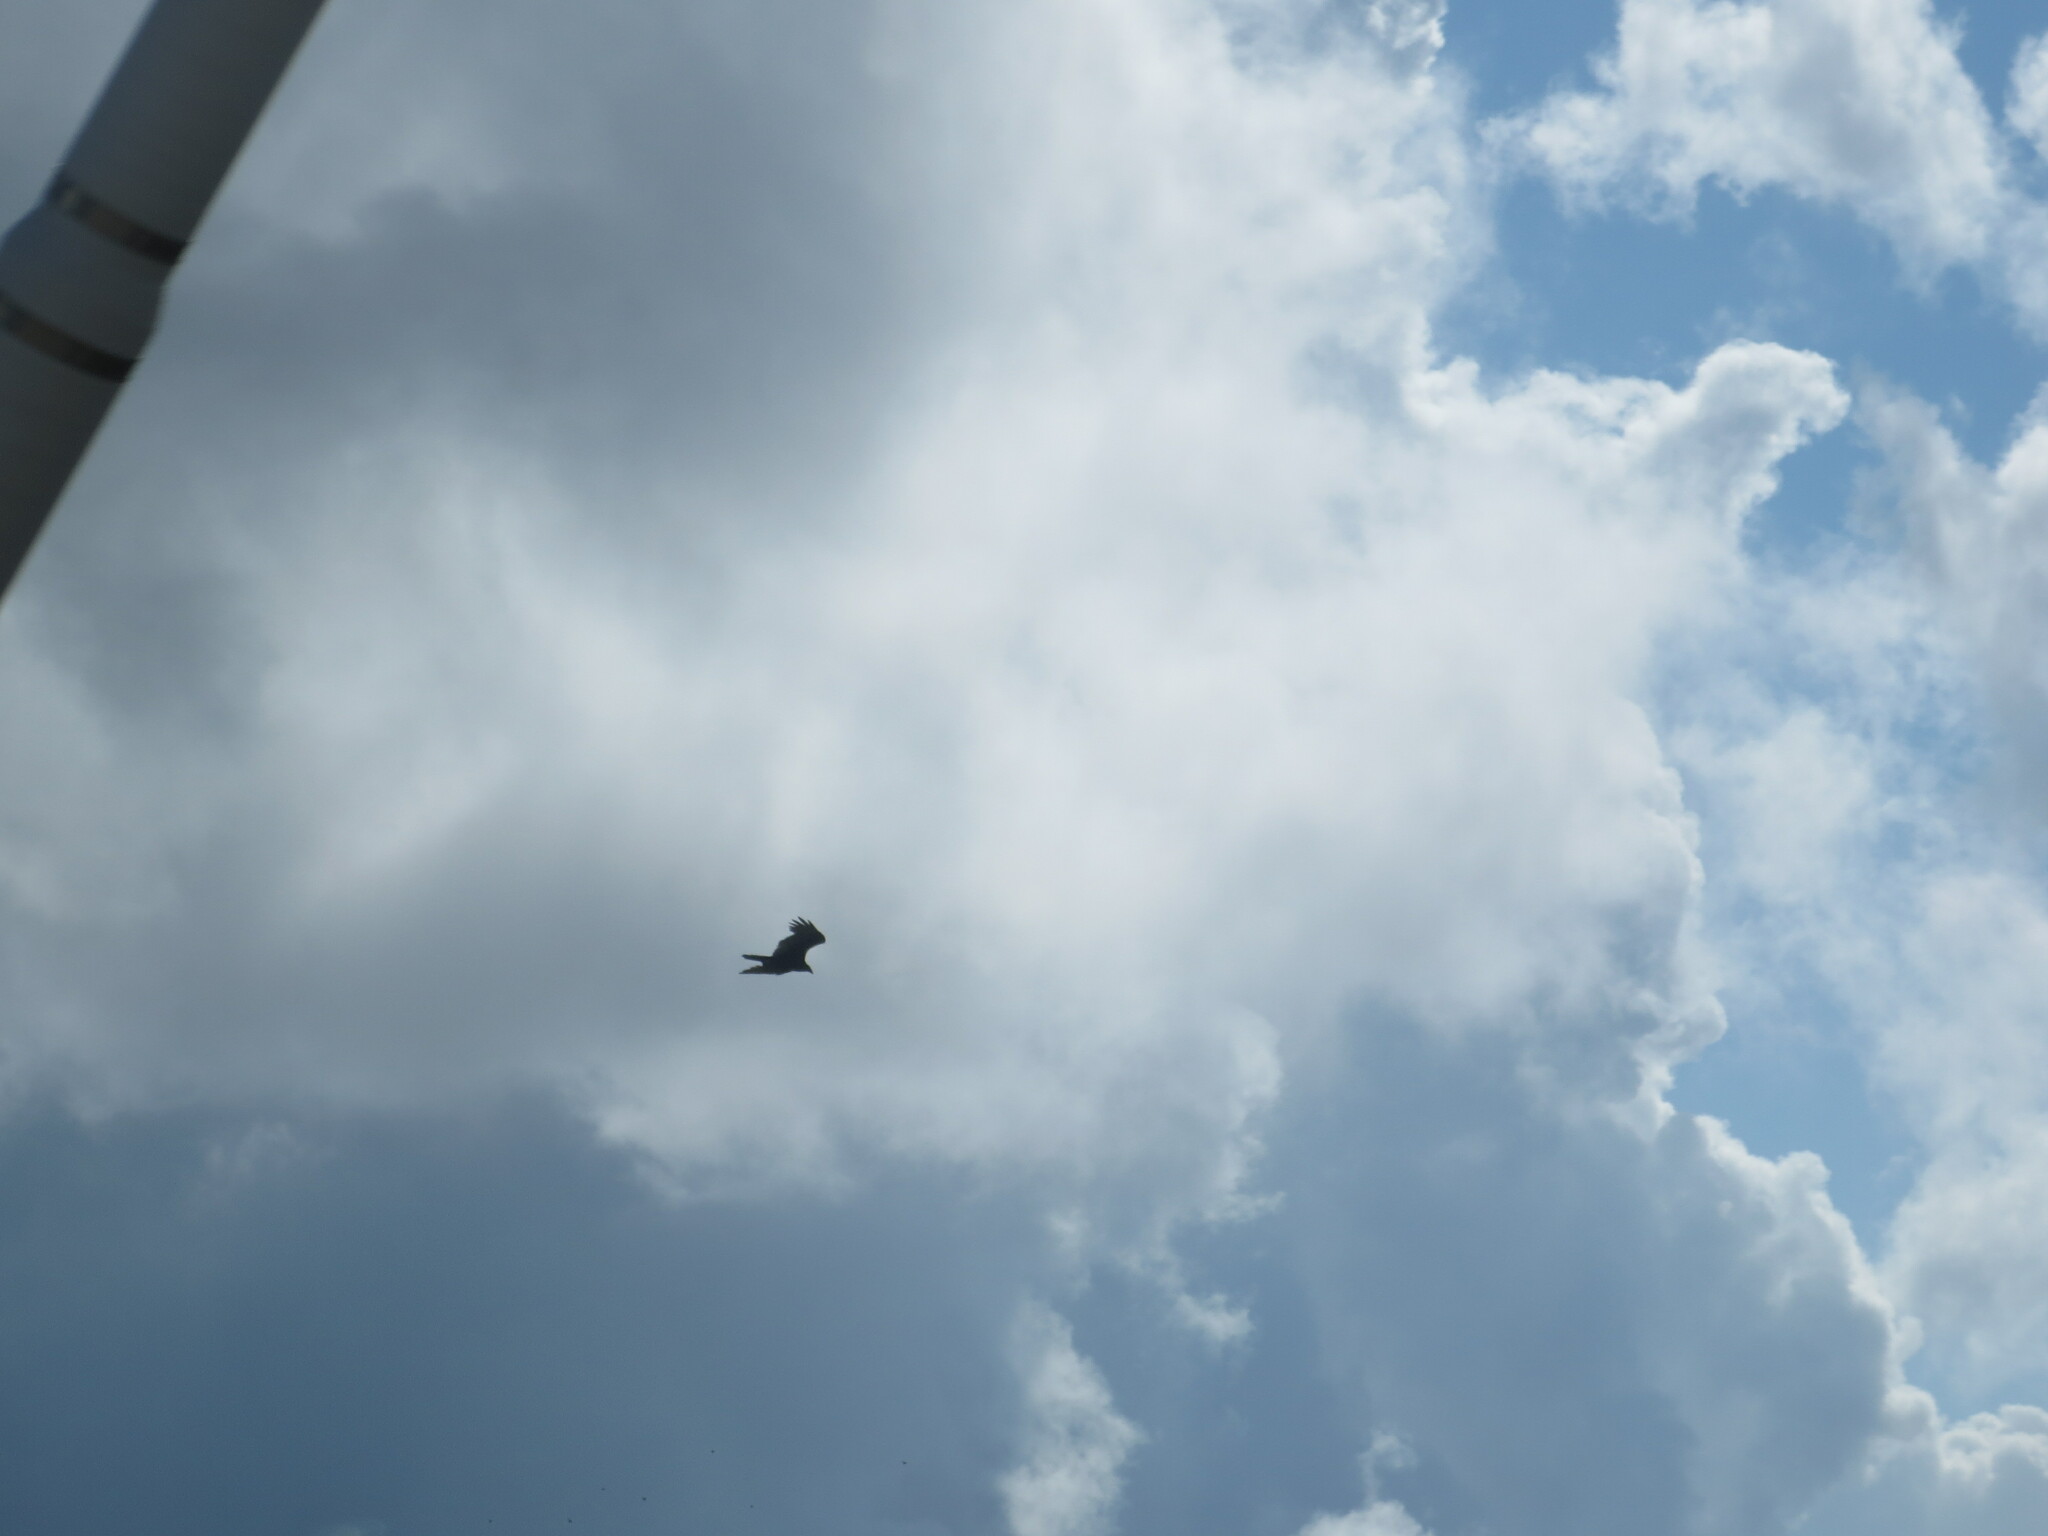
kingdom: Animalia
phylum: Chordata
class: Aves
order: Accipitriformes
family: Cathartidae
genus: Cathartes
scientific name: Cathartes aura
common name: Turkey vulture
